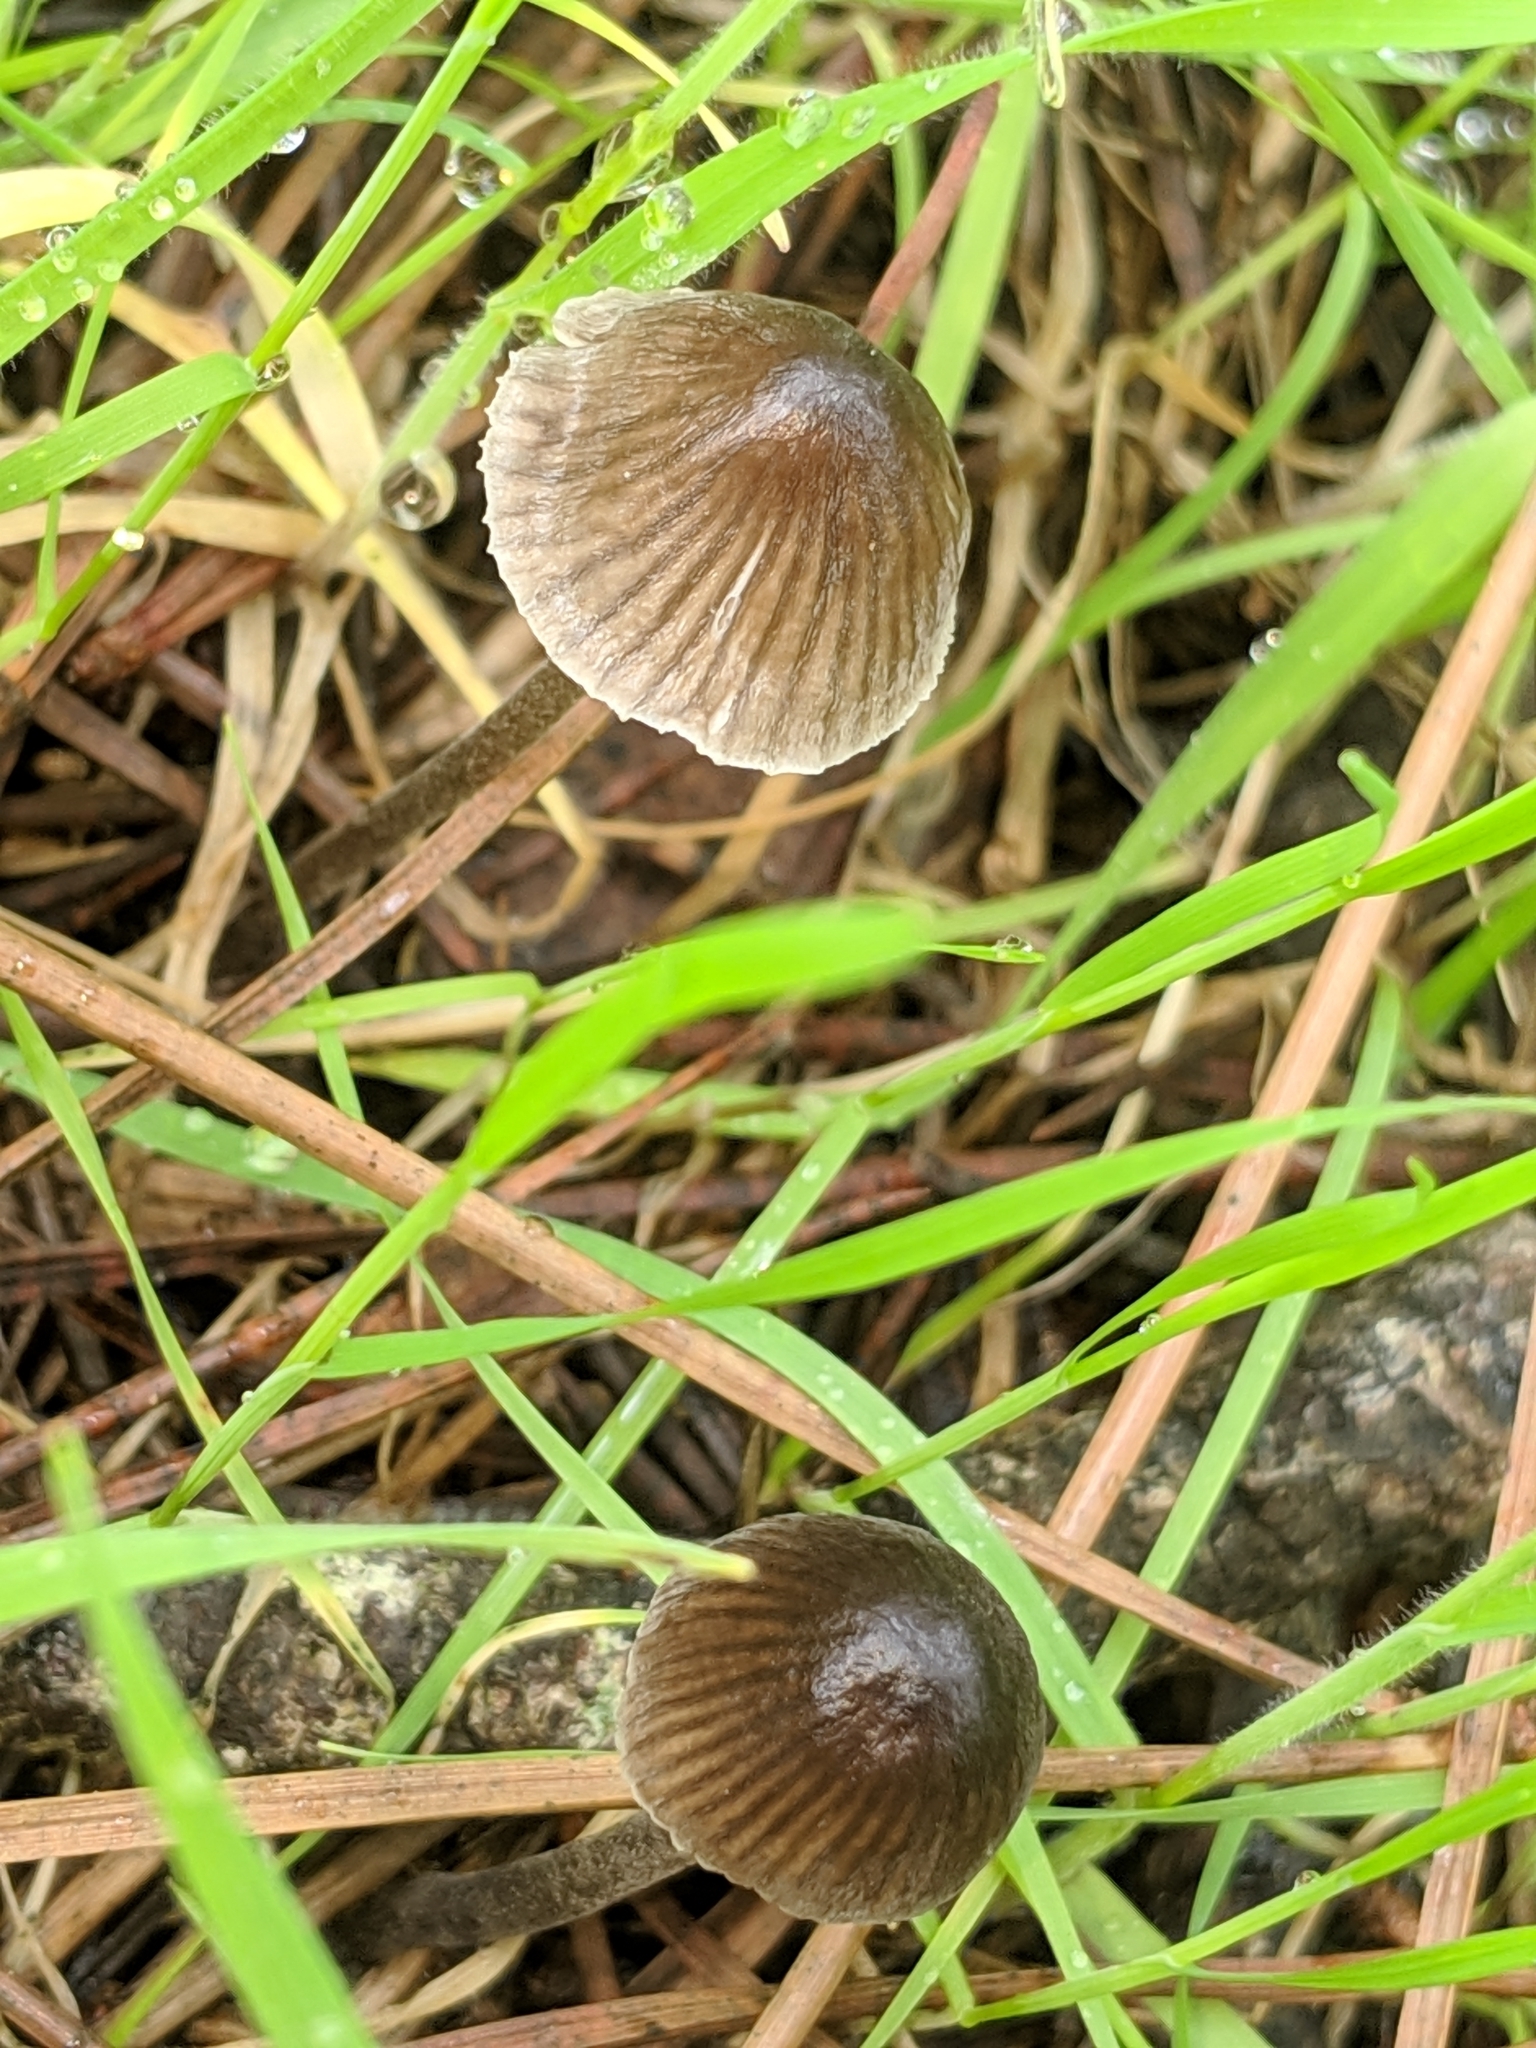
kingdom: Fungi
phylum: Basidiomycota
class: Agaricomycetes
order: Agaricales
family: Mycenaceae
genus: Mycena
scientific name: Mycena leptocephala
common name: Nitrous bonnet
